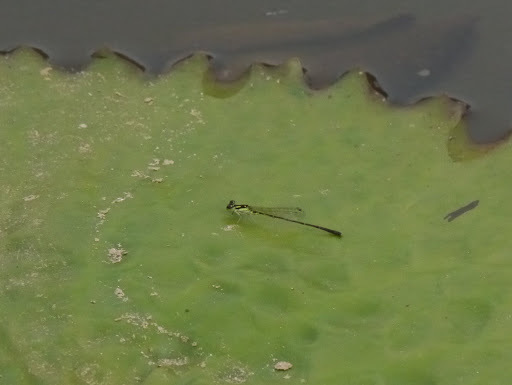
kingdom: Animalia
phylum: Arthropoda
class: Insecta
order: Odonata
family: Coenagrionidae
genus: Ischnura
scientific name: Ischnura posita
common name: Fragile forktail
